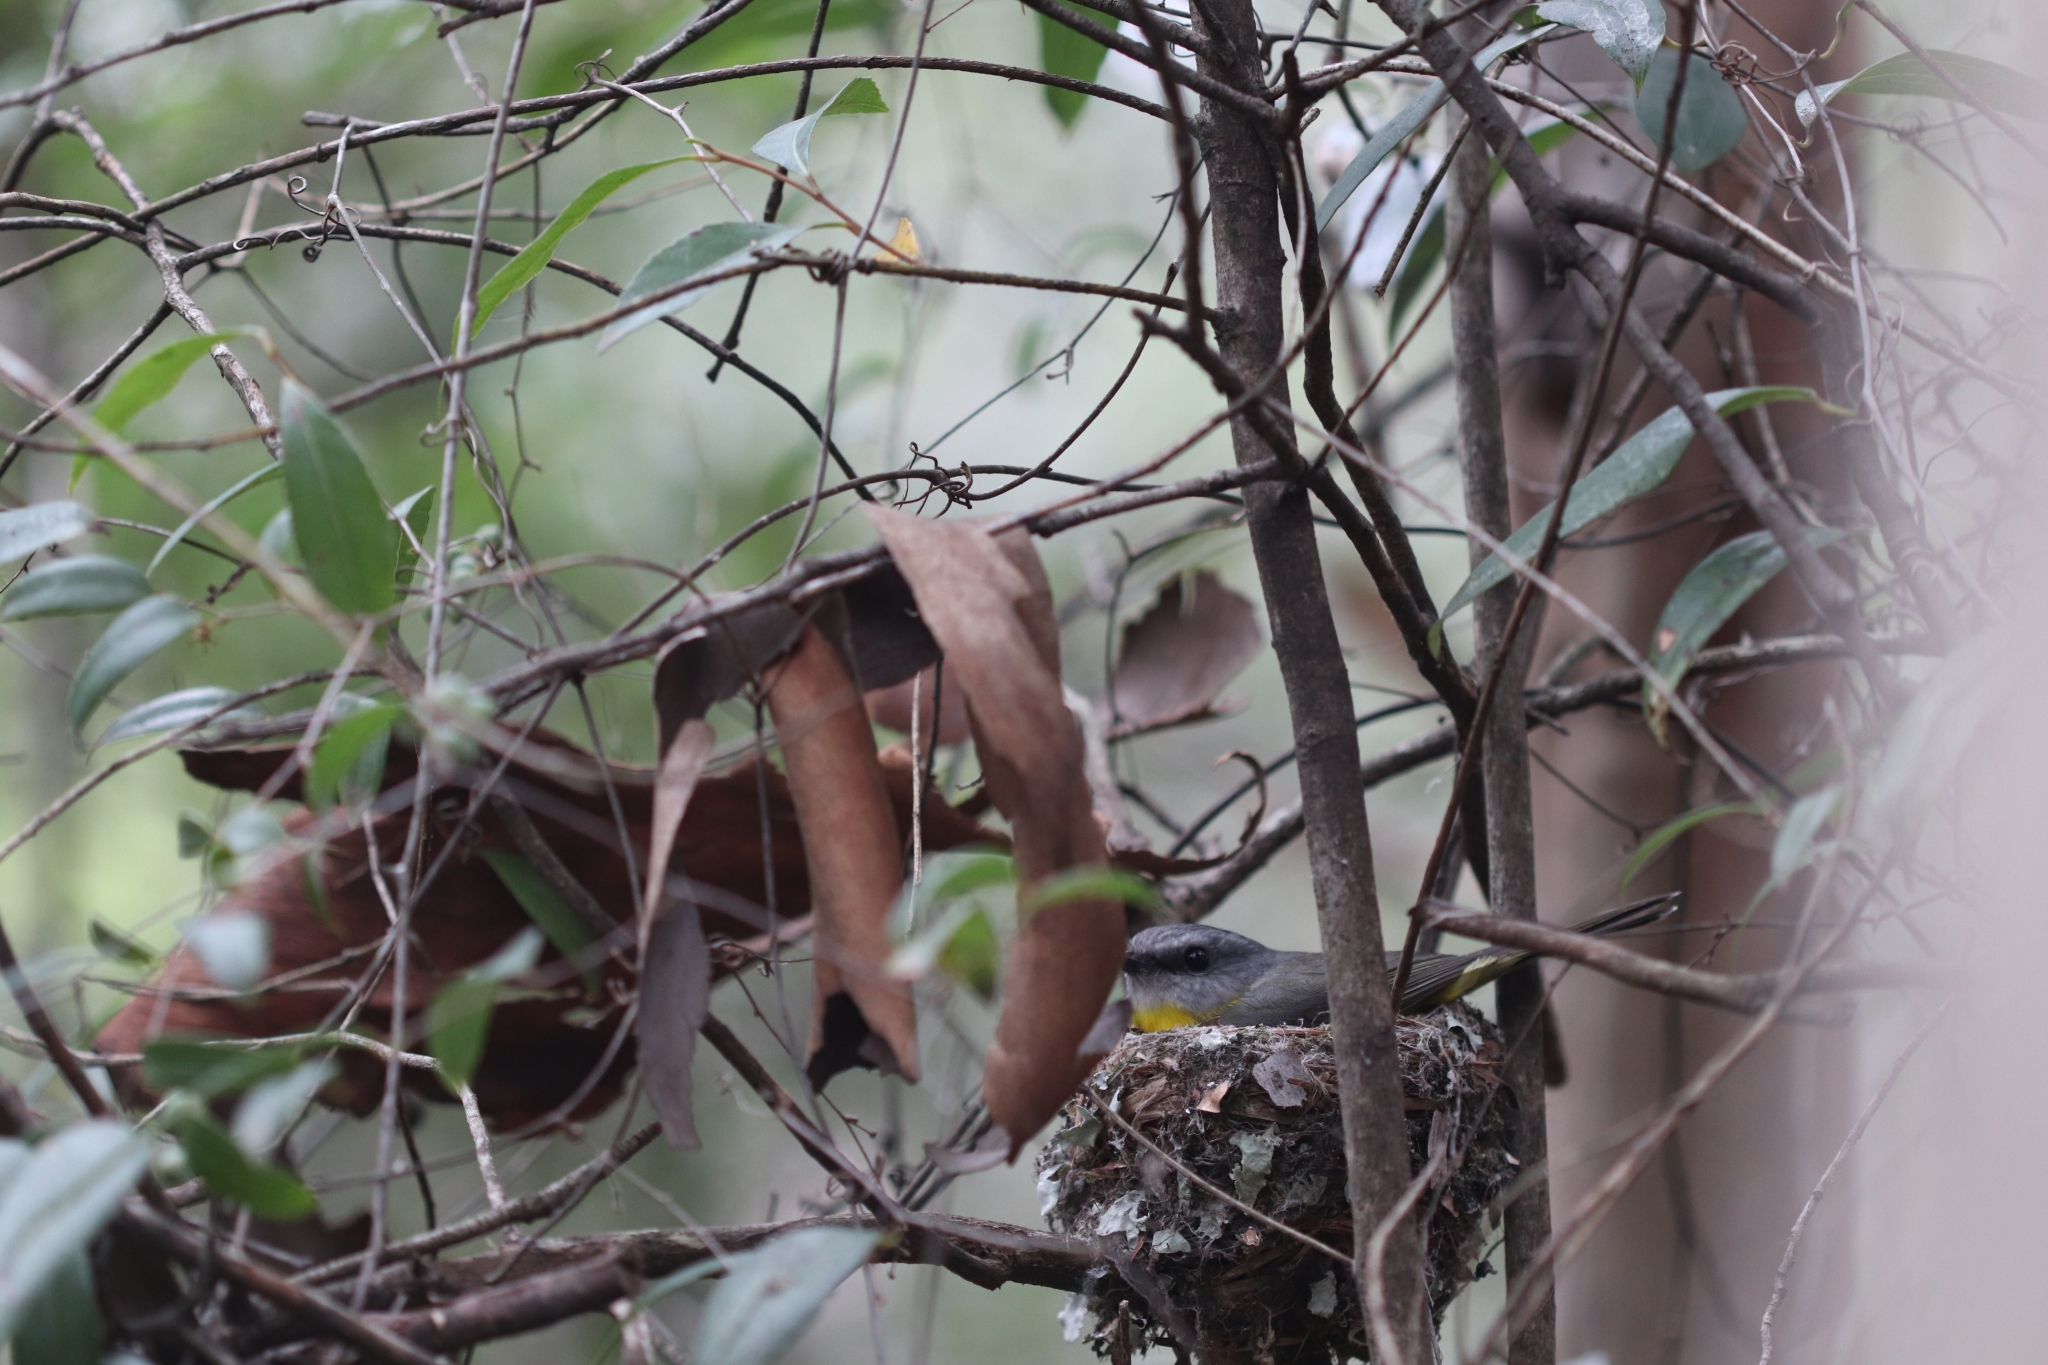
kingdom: Animalia
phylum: Chordata
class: Aves
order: Passeriformes
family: Petroicidae
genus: Eopsaltria
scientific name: Eopsaltria australis
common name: Eastern yellow robin
